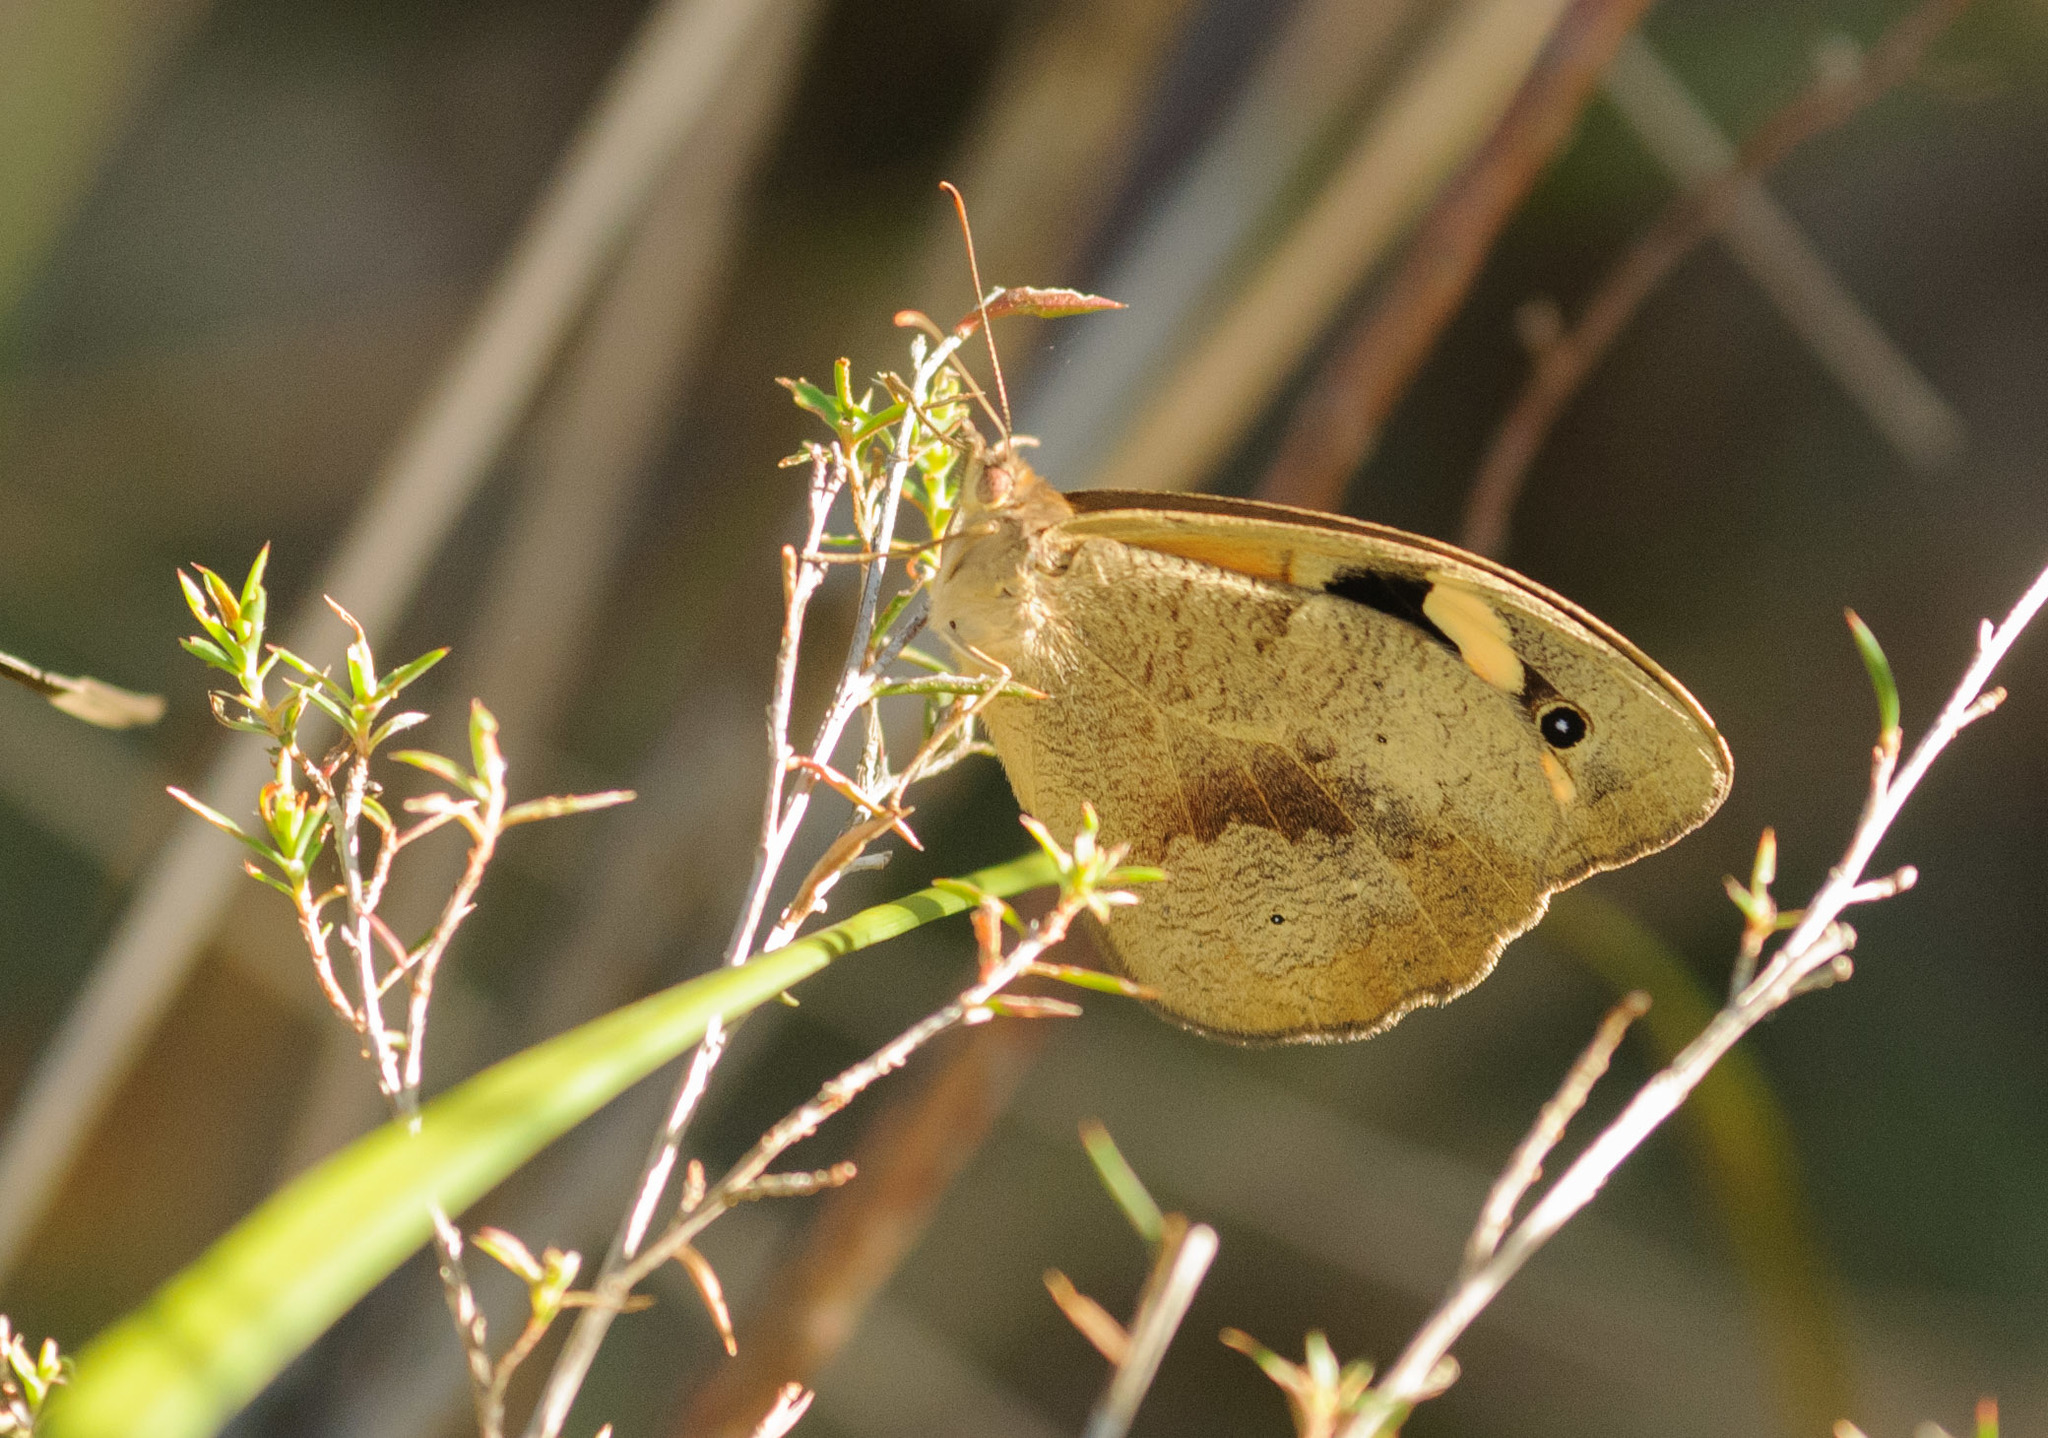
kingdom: Animalia
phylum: Arthropoda
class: Insecta
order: Lepidoptera
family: Nymphalidae
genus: Heteronympha
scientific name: Heteronympha merope
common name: Common brown
